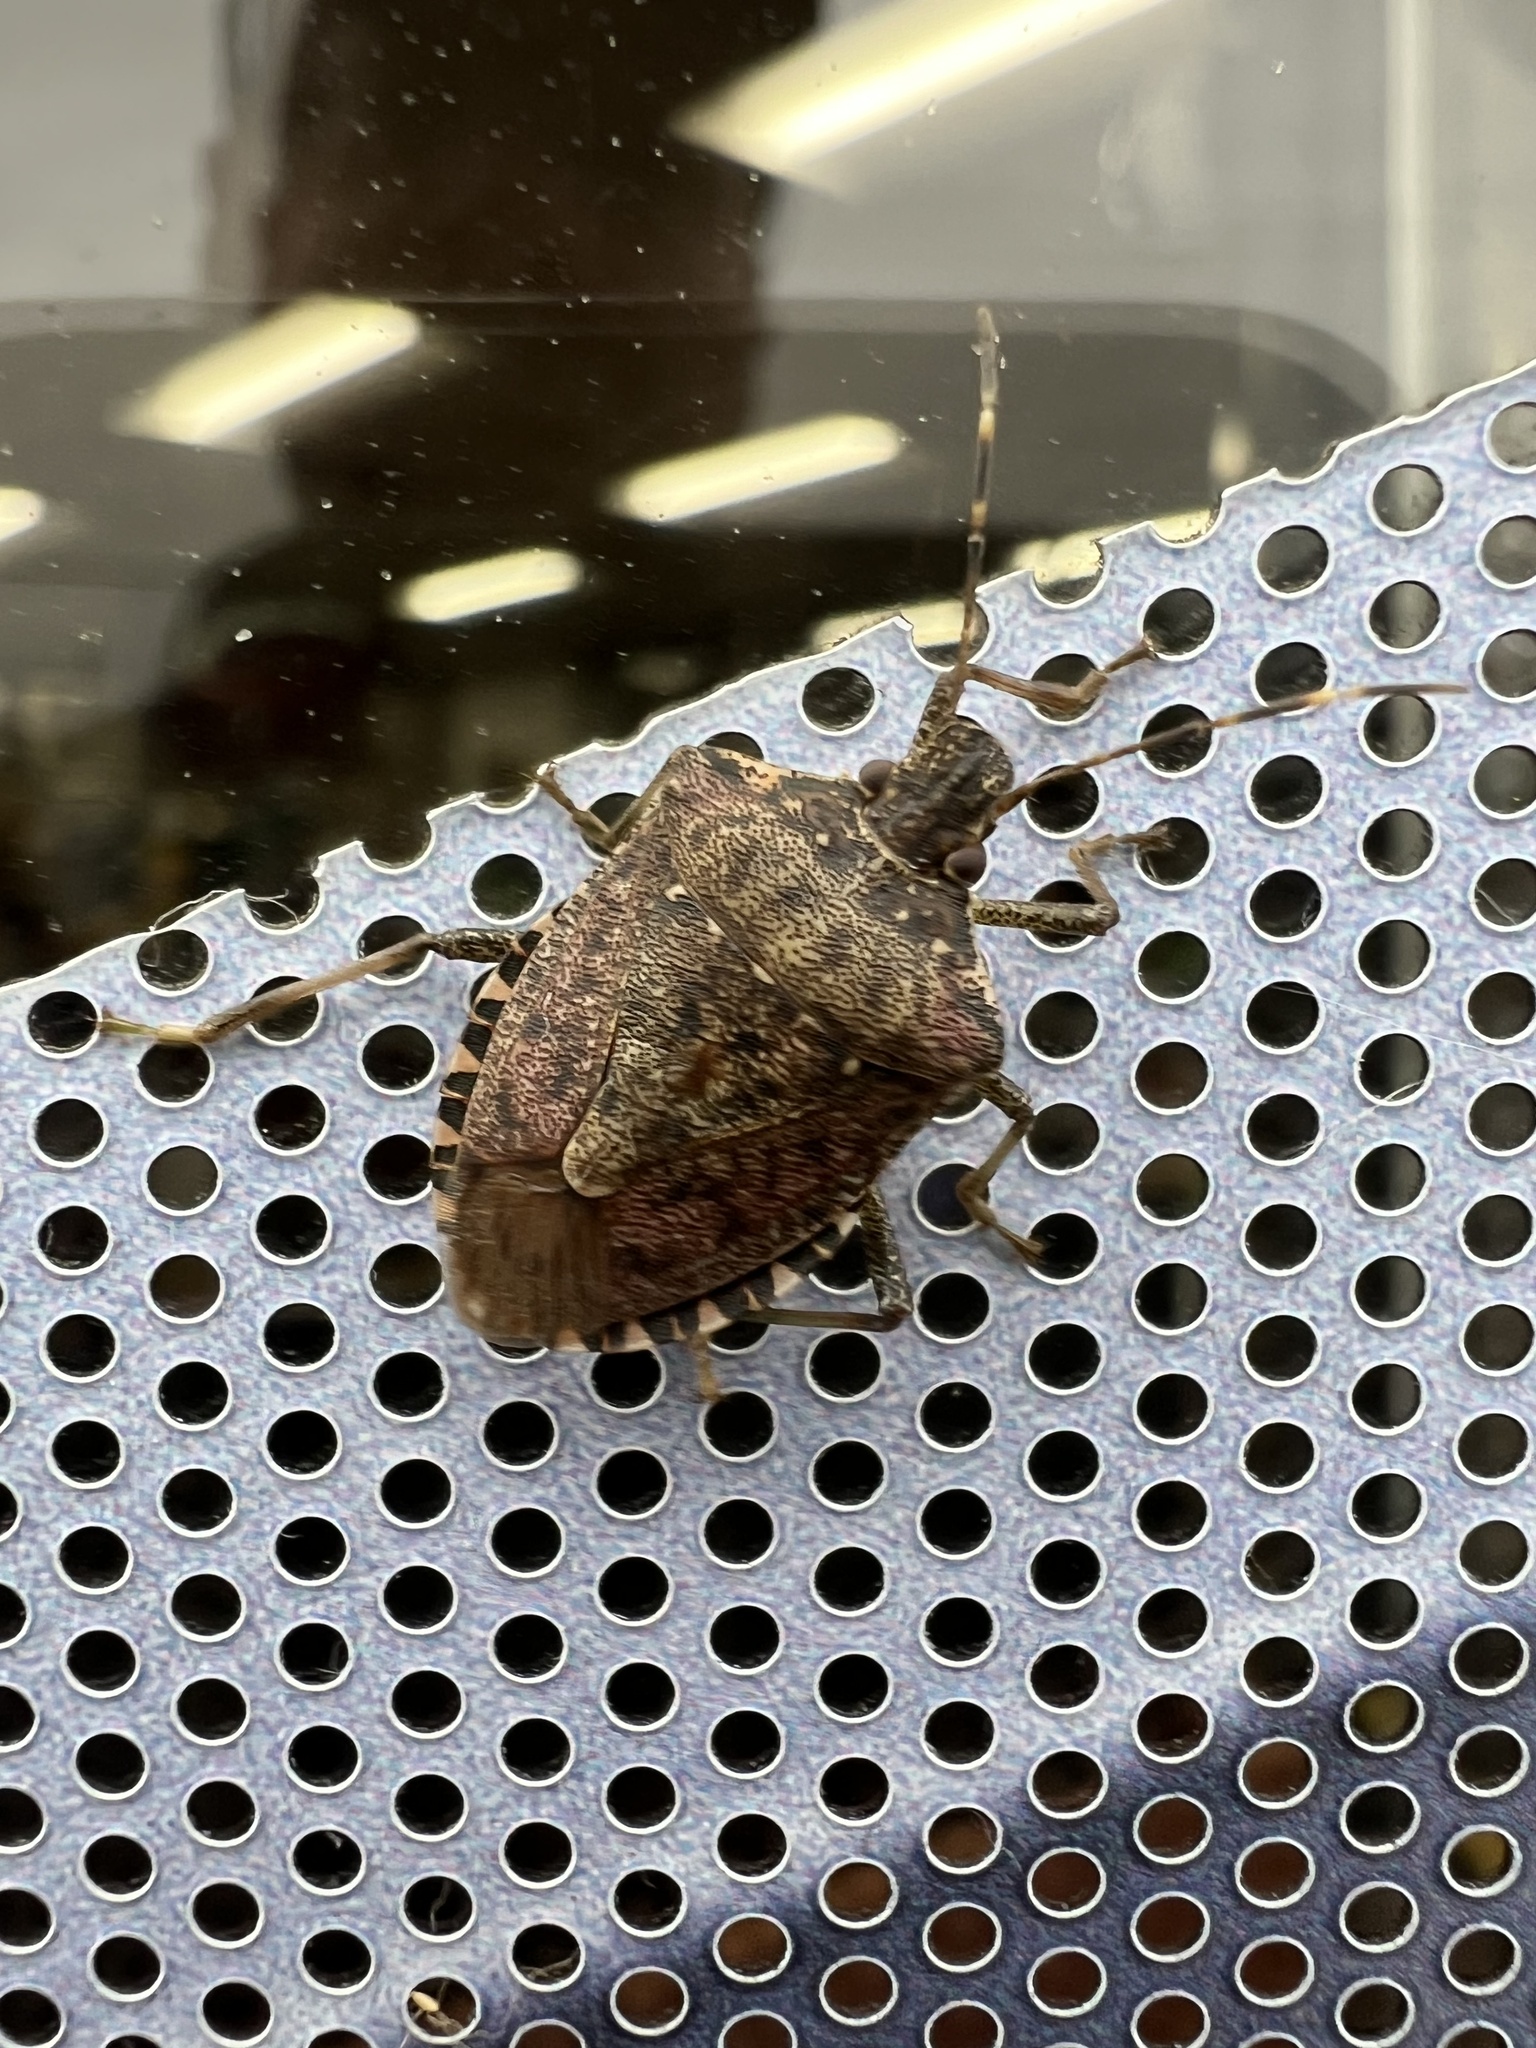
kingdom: Animalia
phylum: Arthropoda
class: Insecta
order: Hemiptera
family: Pentatomidae
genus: Euschistus
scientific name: Euschistus tristigmus
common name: Dusky stink bug
